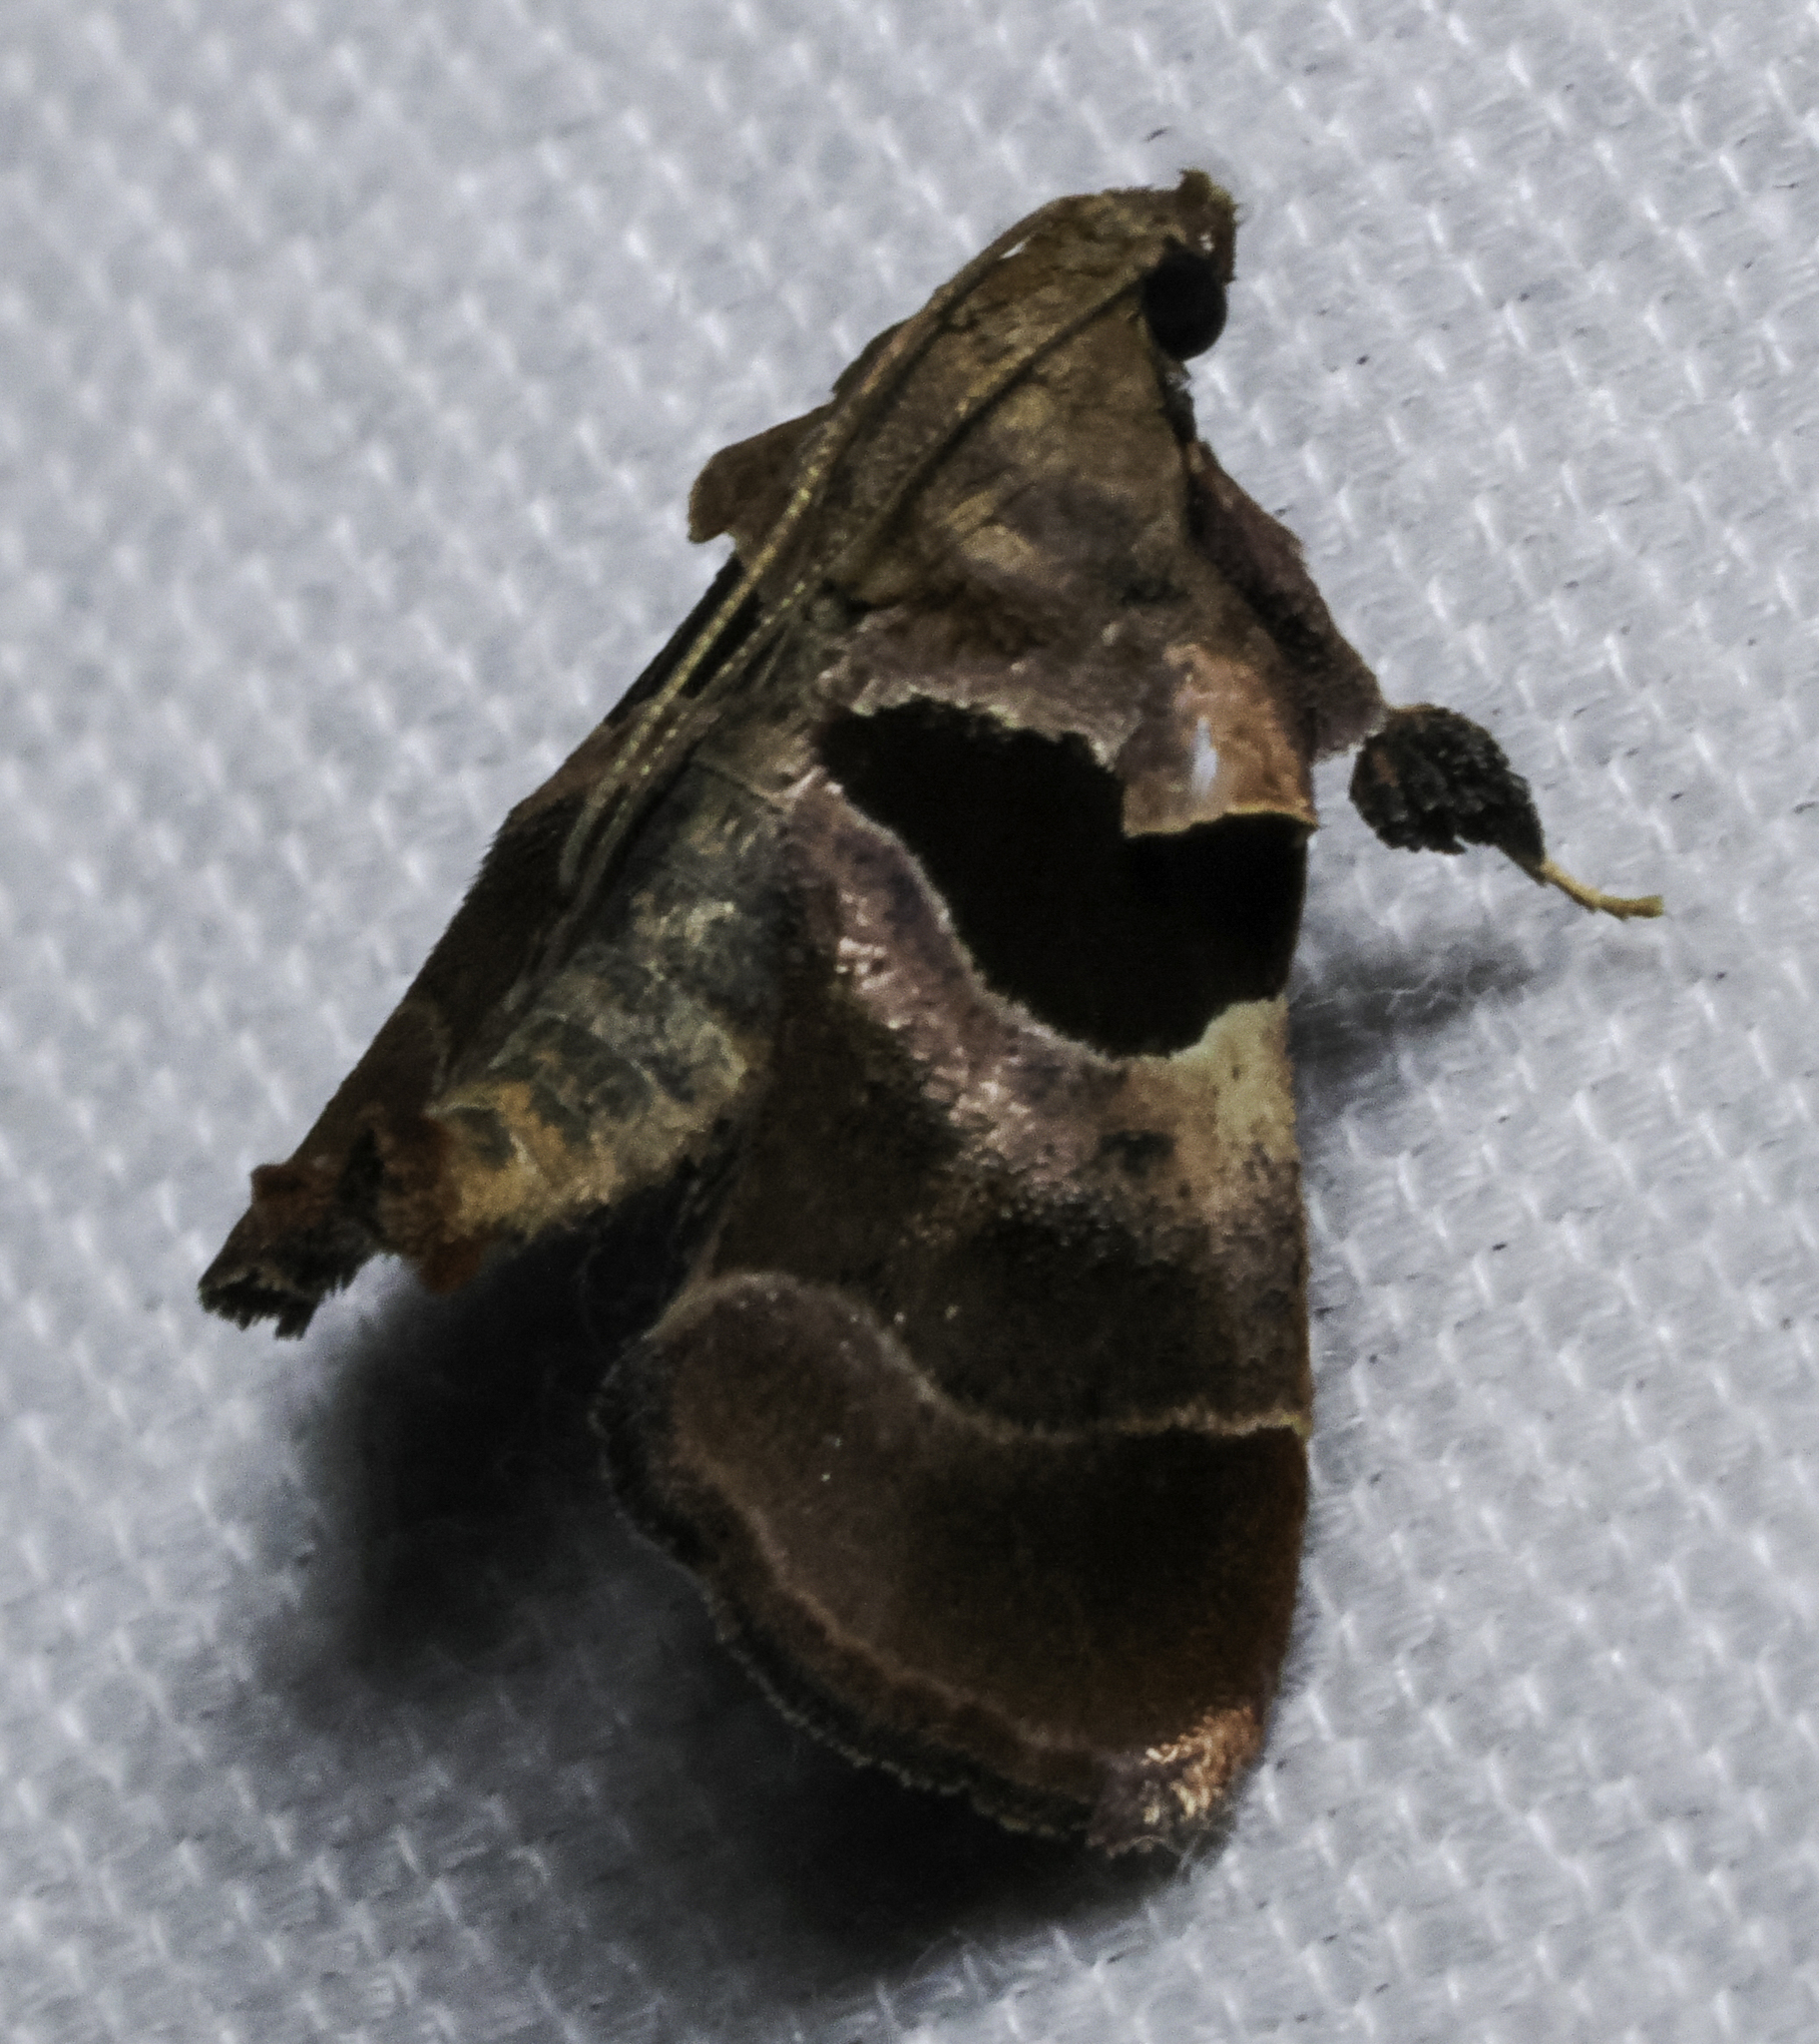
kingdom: Animalia
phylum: Arthropoda
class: Insecta
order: Lepidoptera
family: Pyralidae
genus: Tosale
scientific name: Tosale oviplagalis
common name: Dimorphic tosale moth
